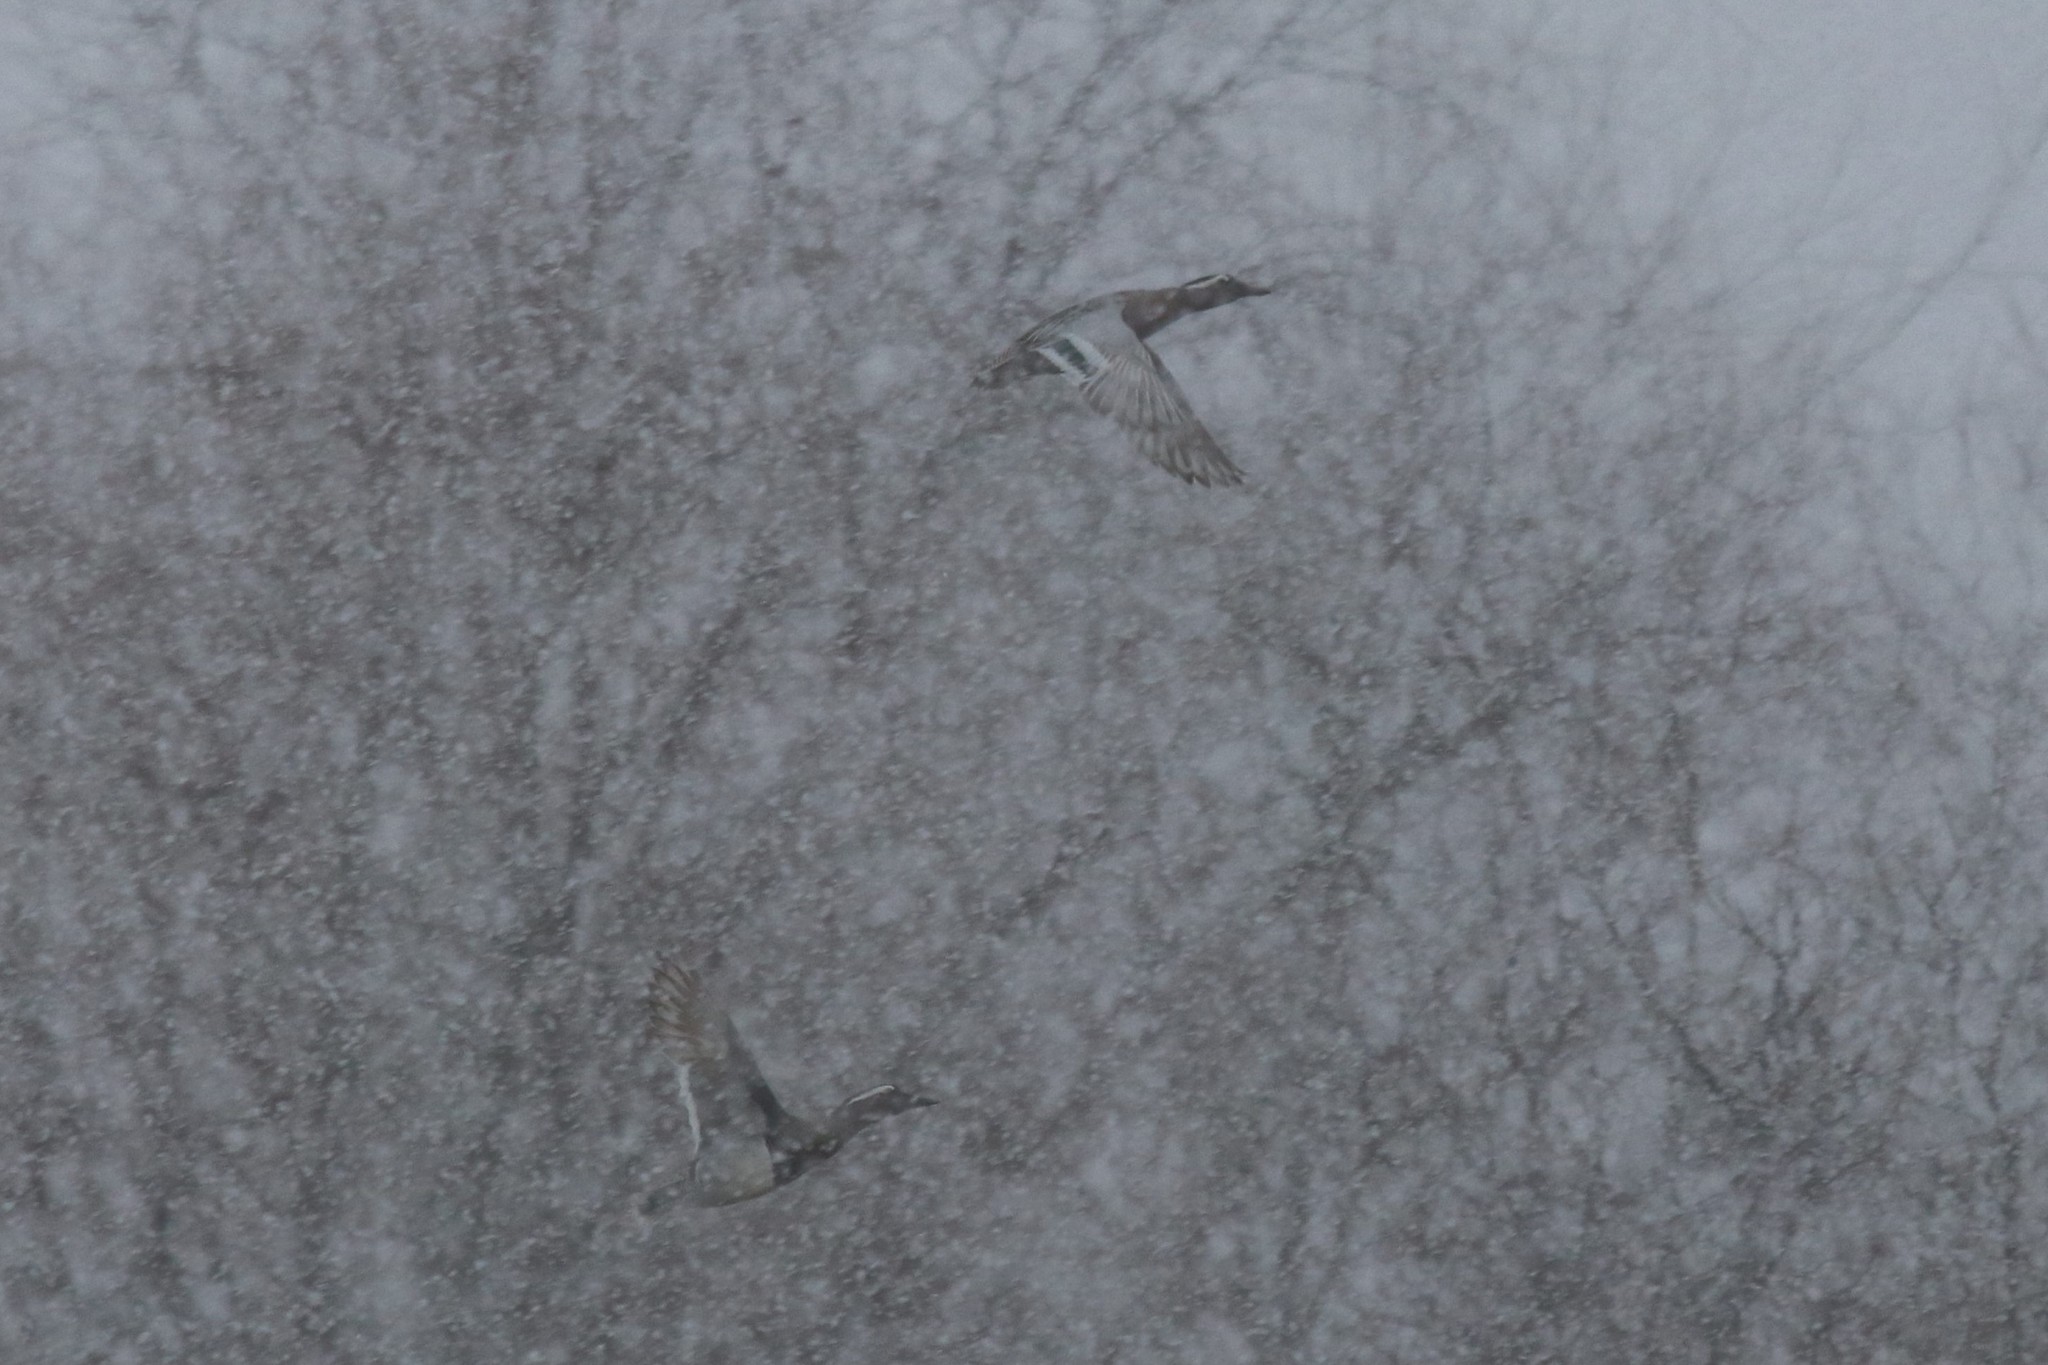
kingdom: Animalia
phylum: Chordata
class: Aves
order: Anseriformes
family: Anatidae
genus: Spatula
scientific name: Spatula querquedula
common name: Garganey
